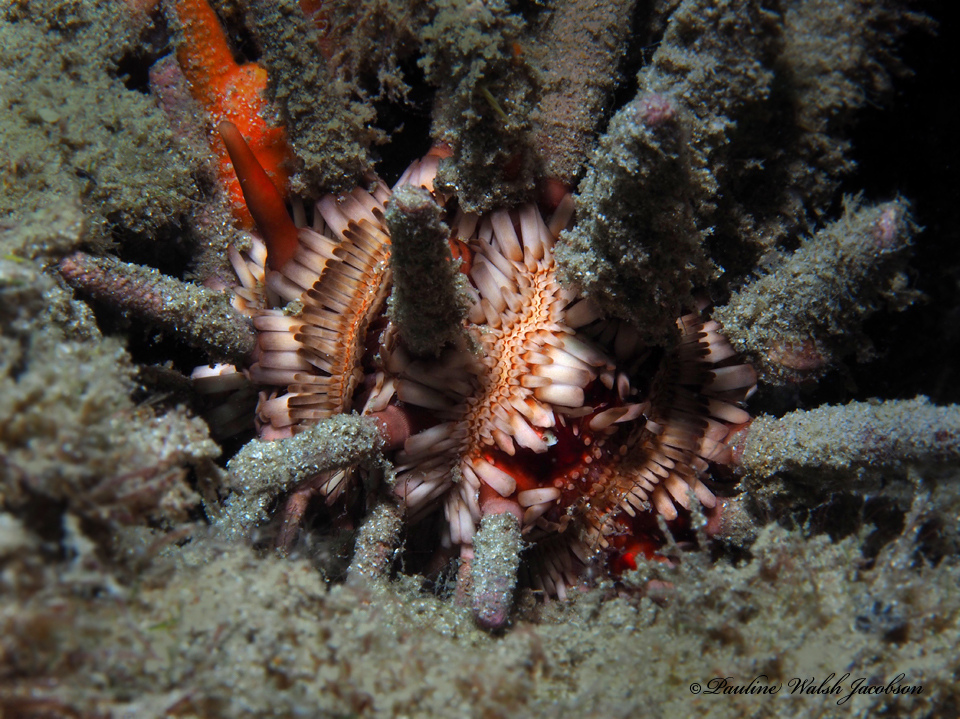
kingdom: Animalia
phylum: Echinodermata
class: Echinoidea
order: Cidaroida
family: Cidaridae
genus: Eucidaris
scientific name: Eucidaris tribuloides
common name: Slate pencil urchin
